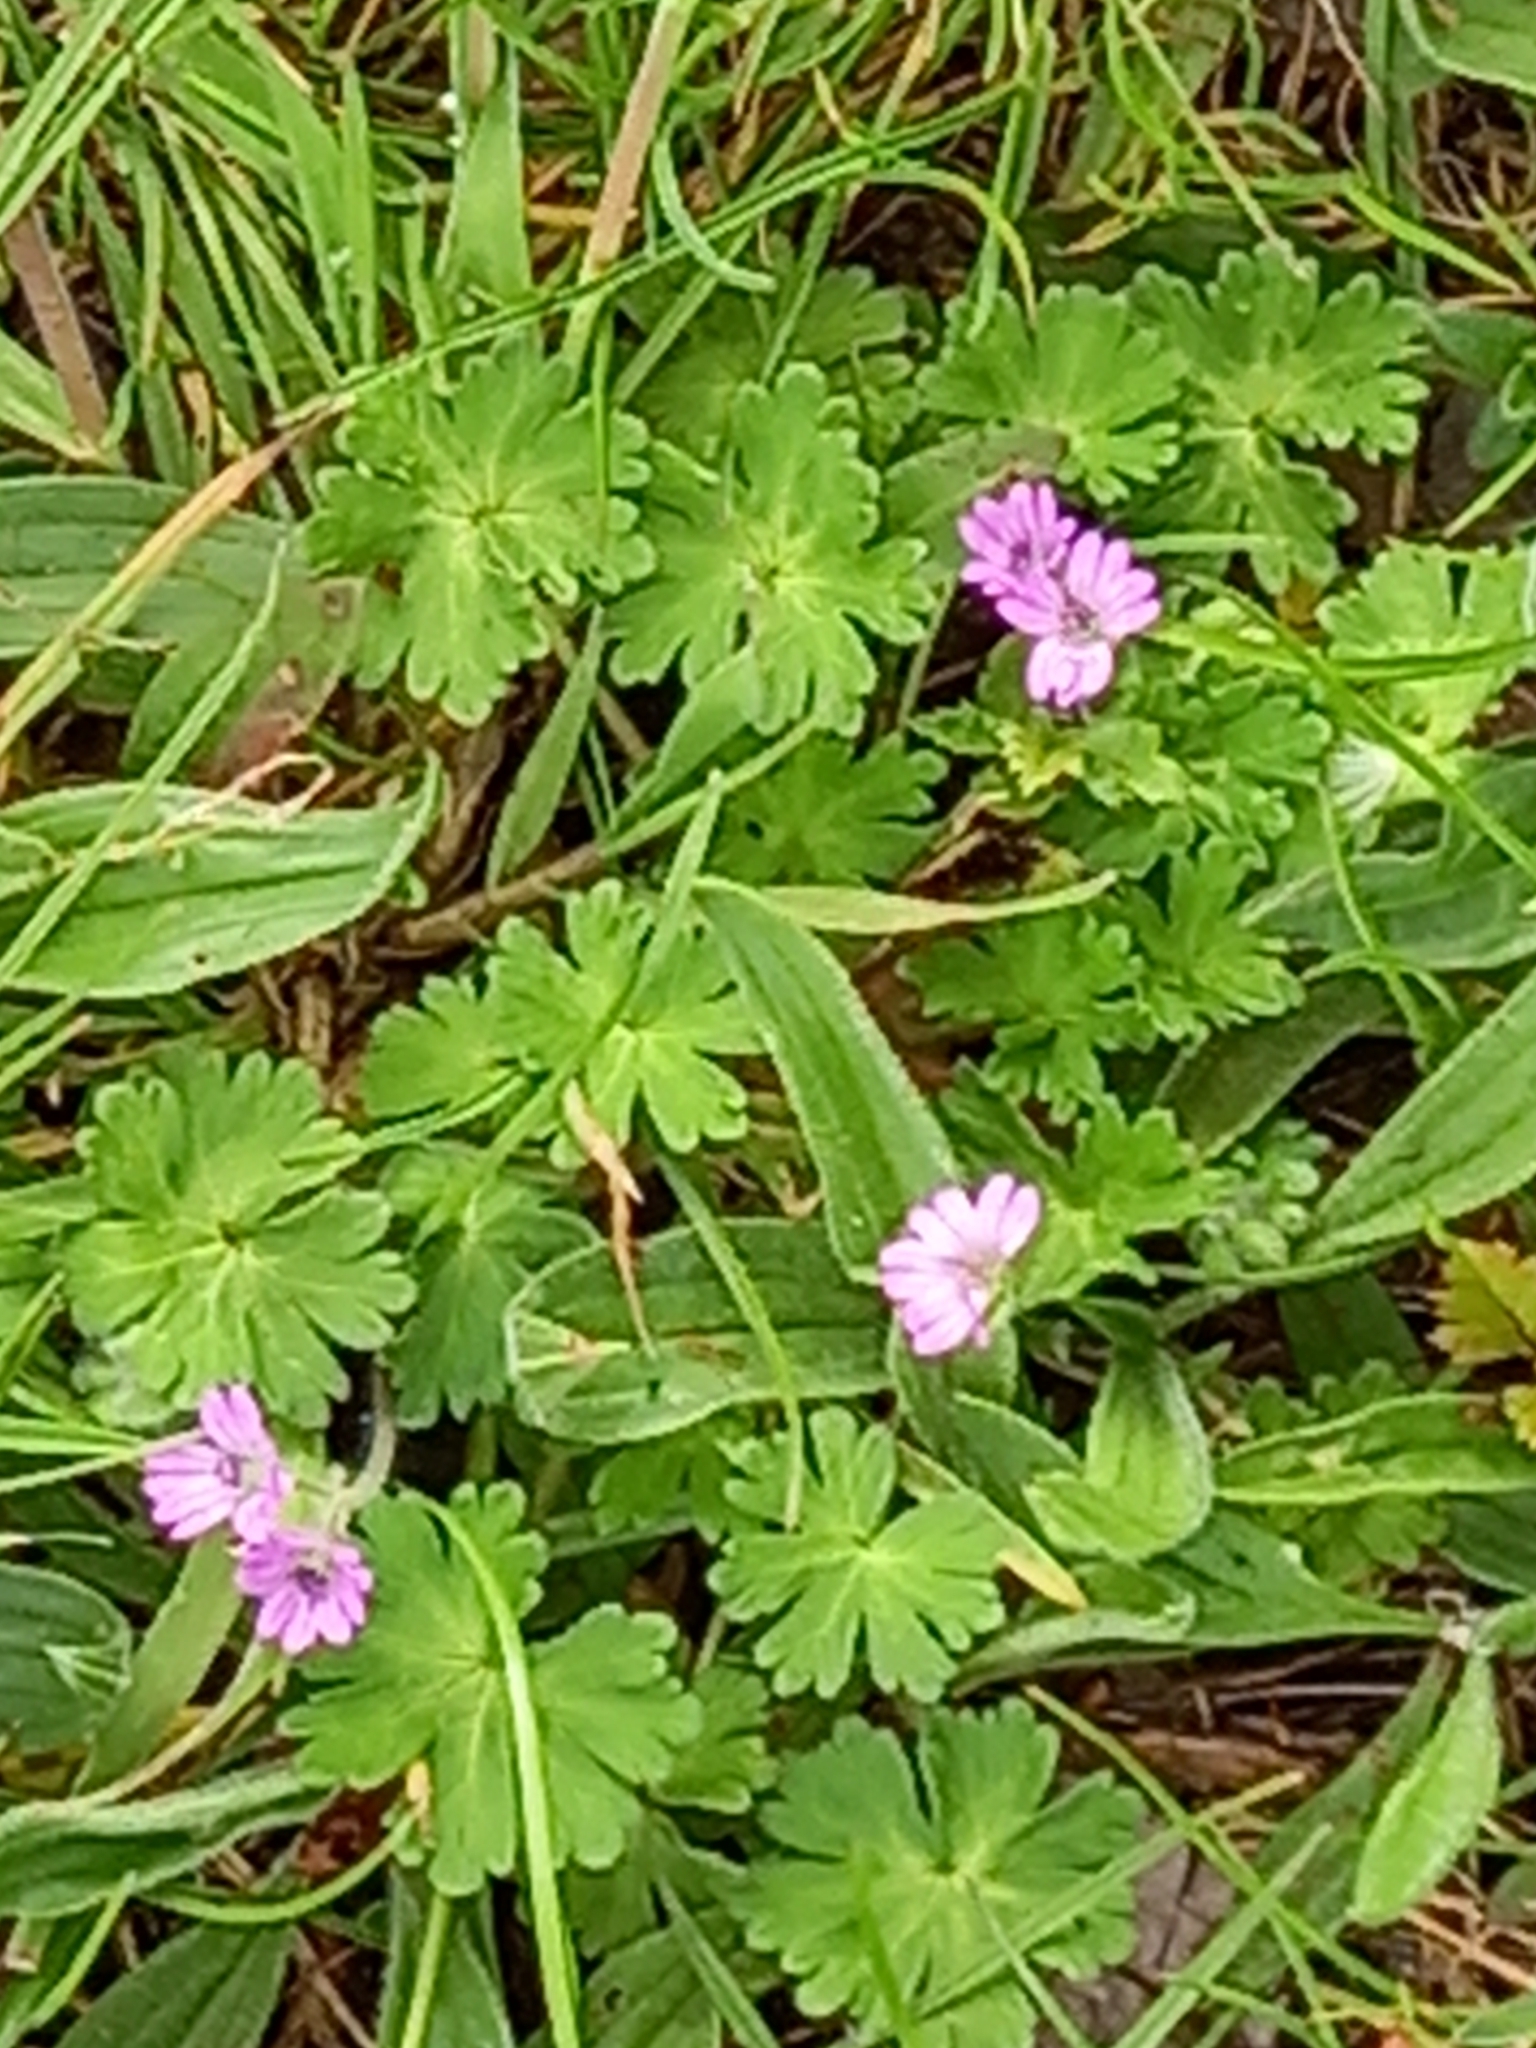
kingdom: Plantae
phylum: Tracheophyta
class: Magnoliopsida
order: Geraniales
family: Geraniaceae
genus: Geranium
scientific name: Geranium molle
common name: Dove's-foot crane's-bill
